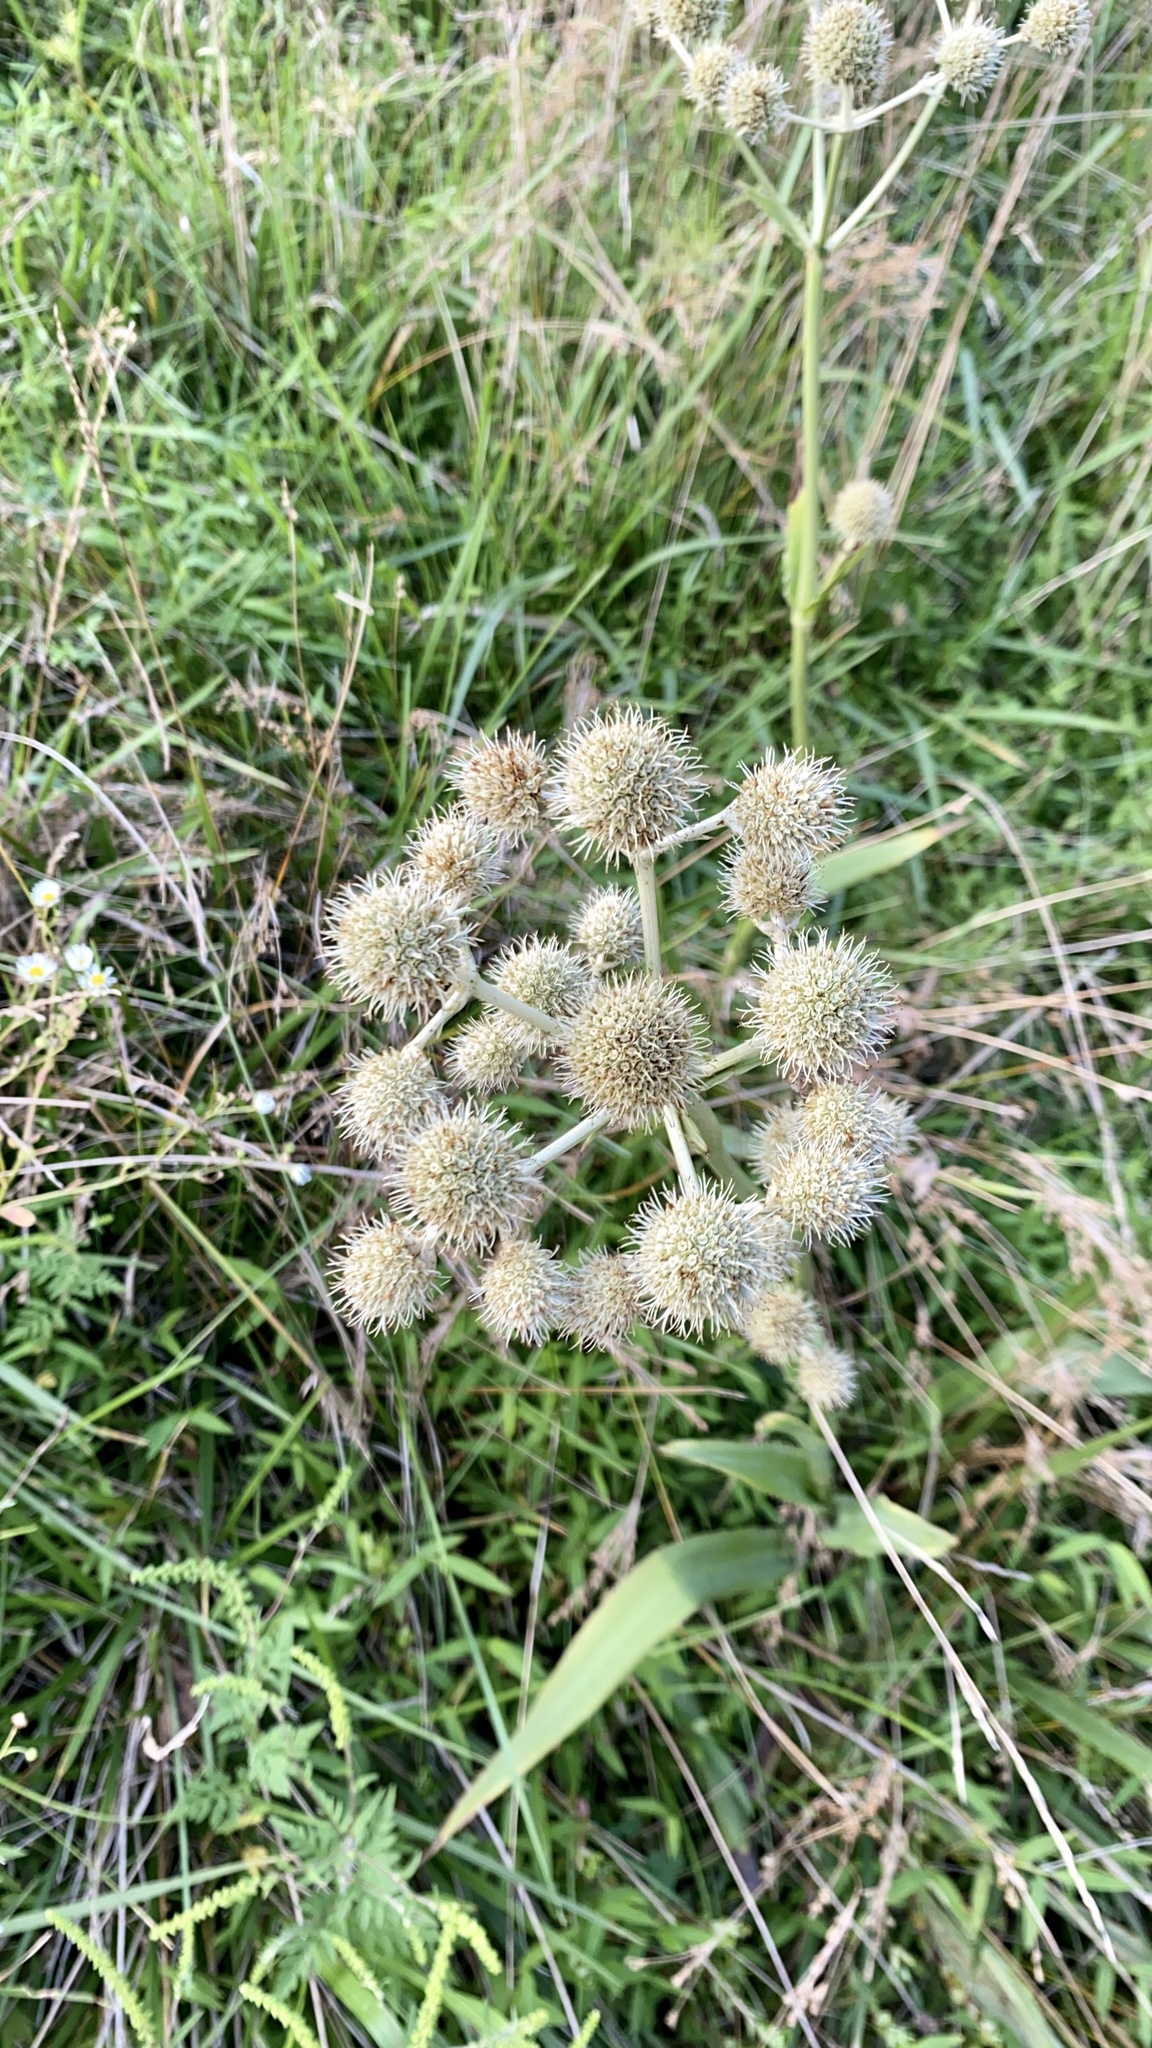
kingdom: Plantae
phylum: Tracheophyta
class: Magnoliopsida
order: Apiales
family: Apiaceae
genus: Eryngium
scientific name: Eryngium yuccifolium
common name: Button eryngo
